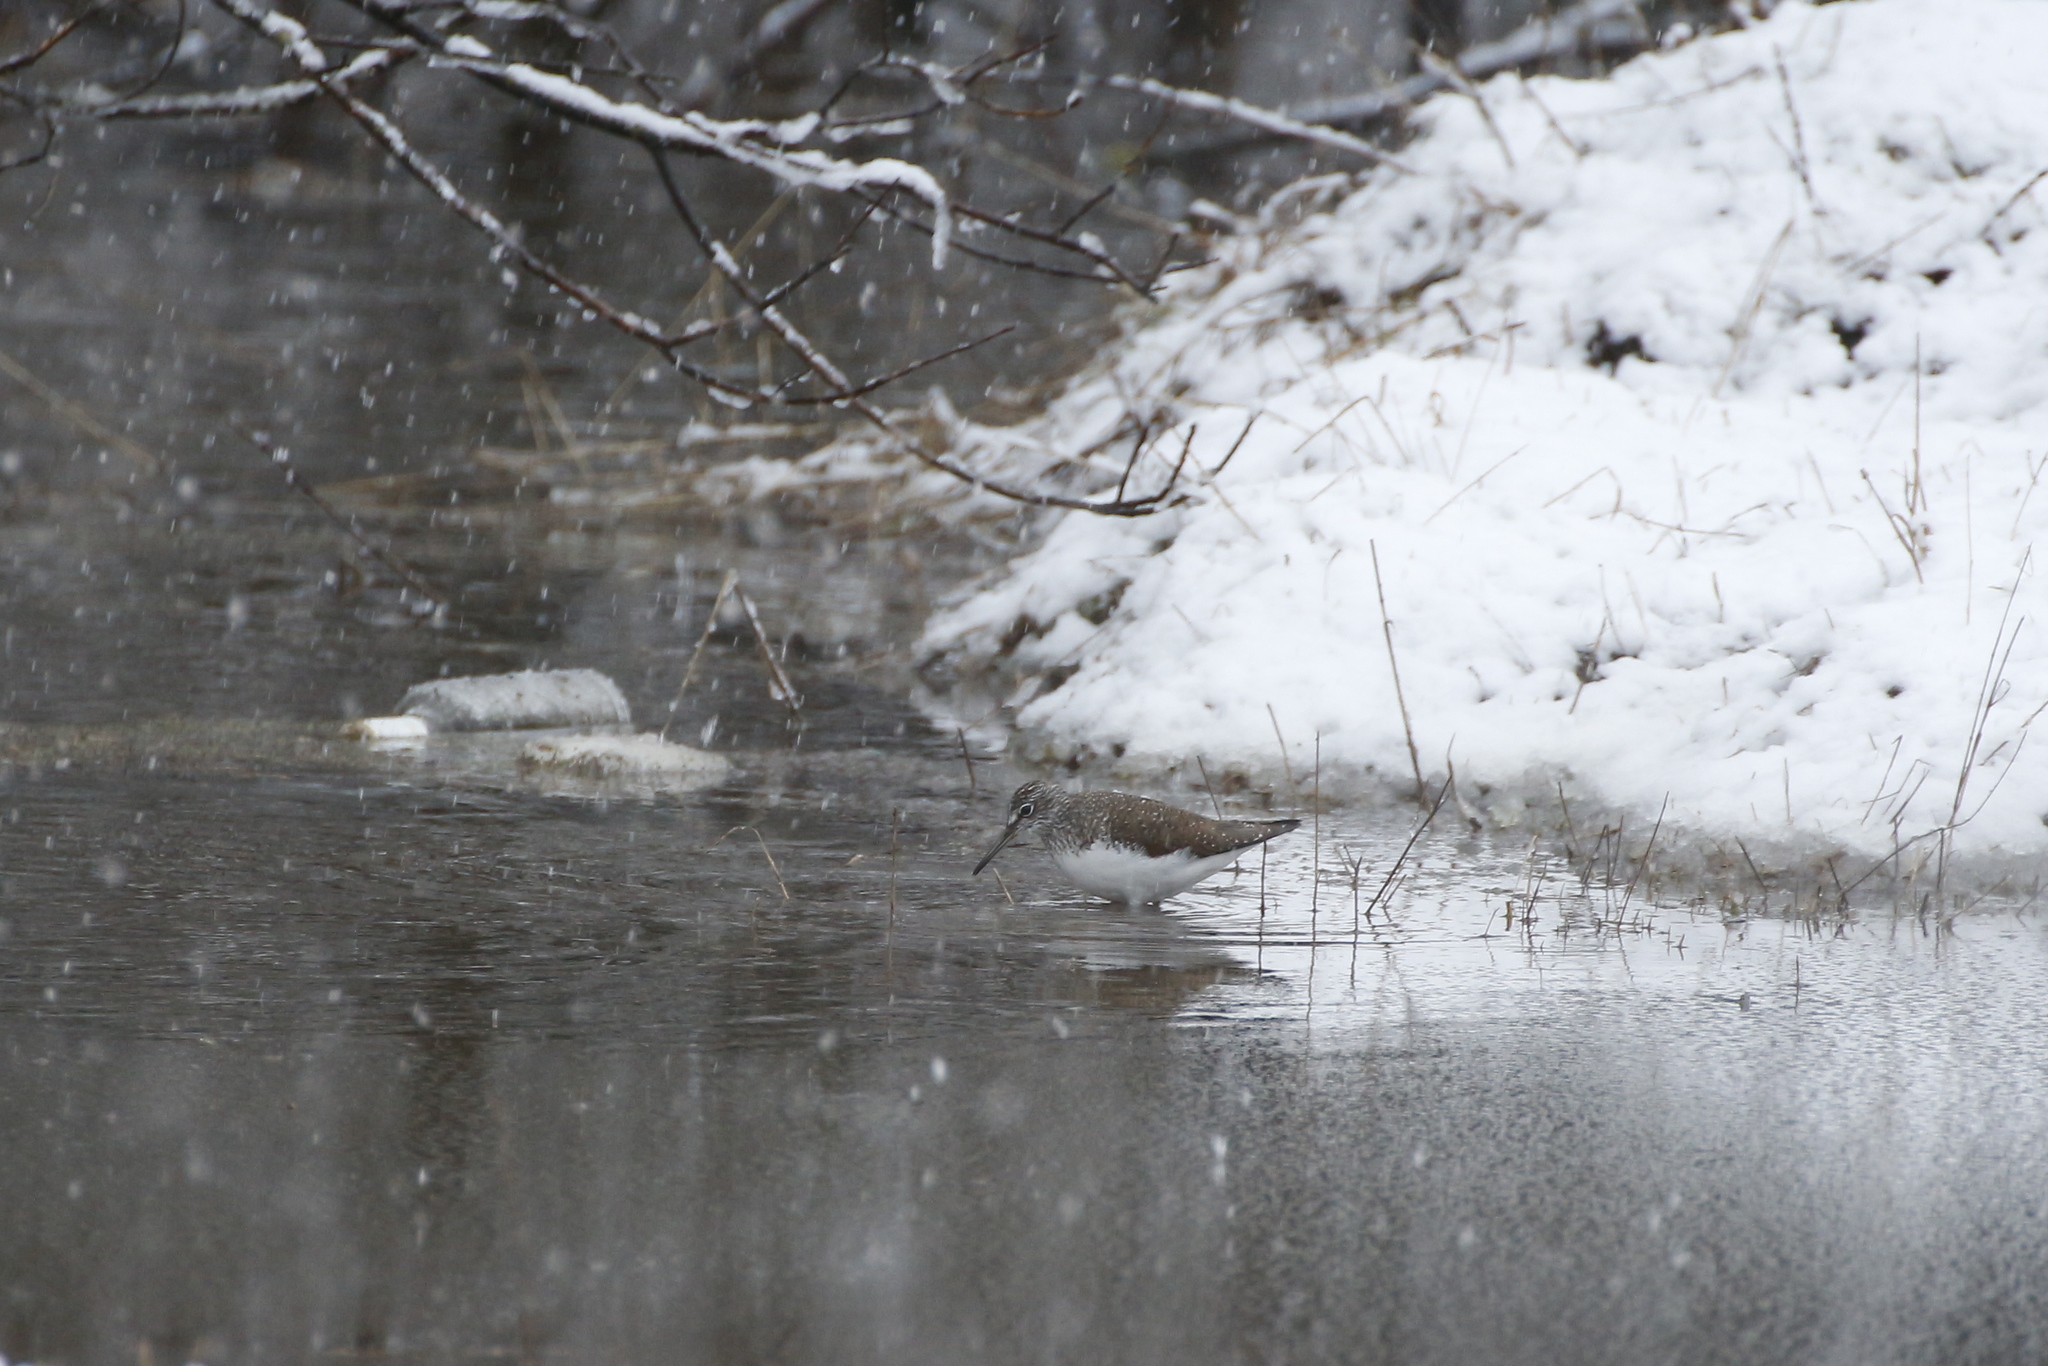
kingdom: Animalia
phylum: Chordata
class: Aves
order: Charadriiformes
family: Scolopacidae
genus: Tringa
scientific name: Tringa ochropus
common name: Green sandpiper
